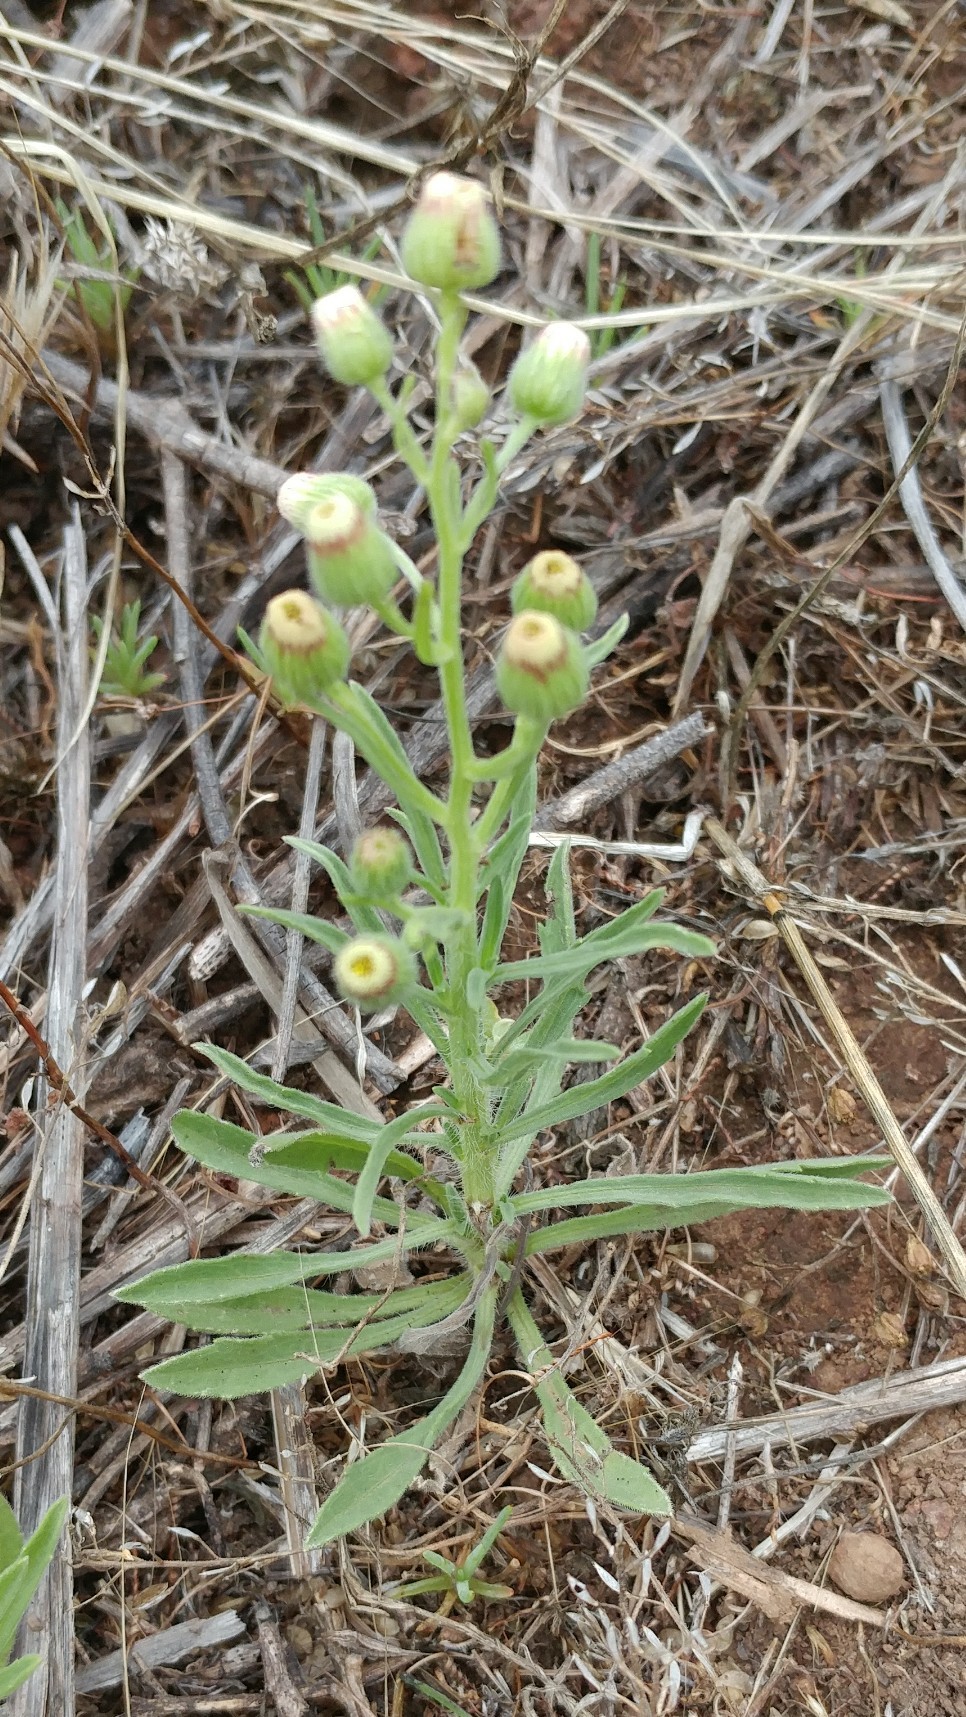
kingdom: Plantae
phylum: Tracheophyta
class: Magnoliopsida
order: Asterales
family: Asteraceae
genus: Erigeron
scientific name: Erigeron bonariensis
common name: Argentine fleabane
